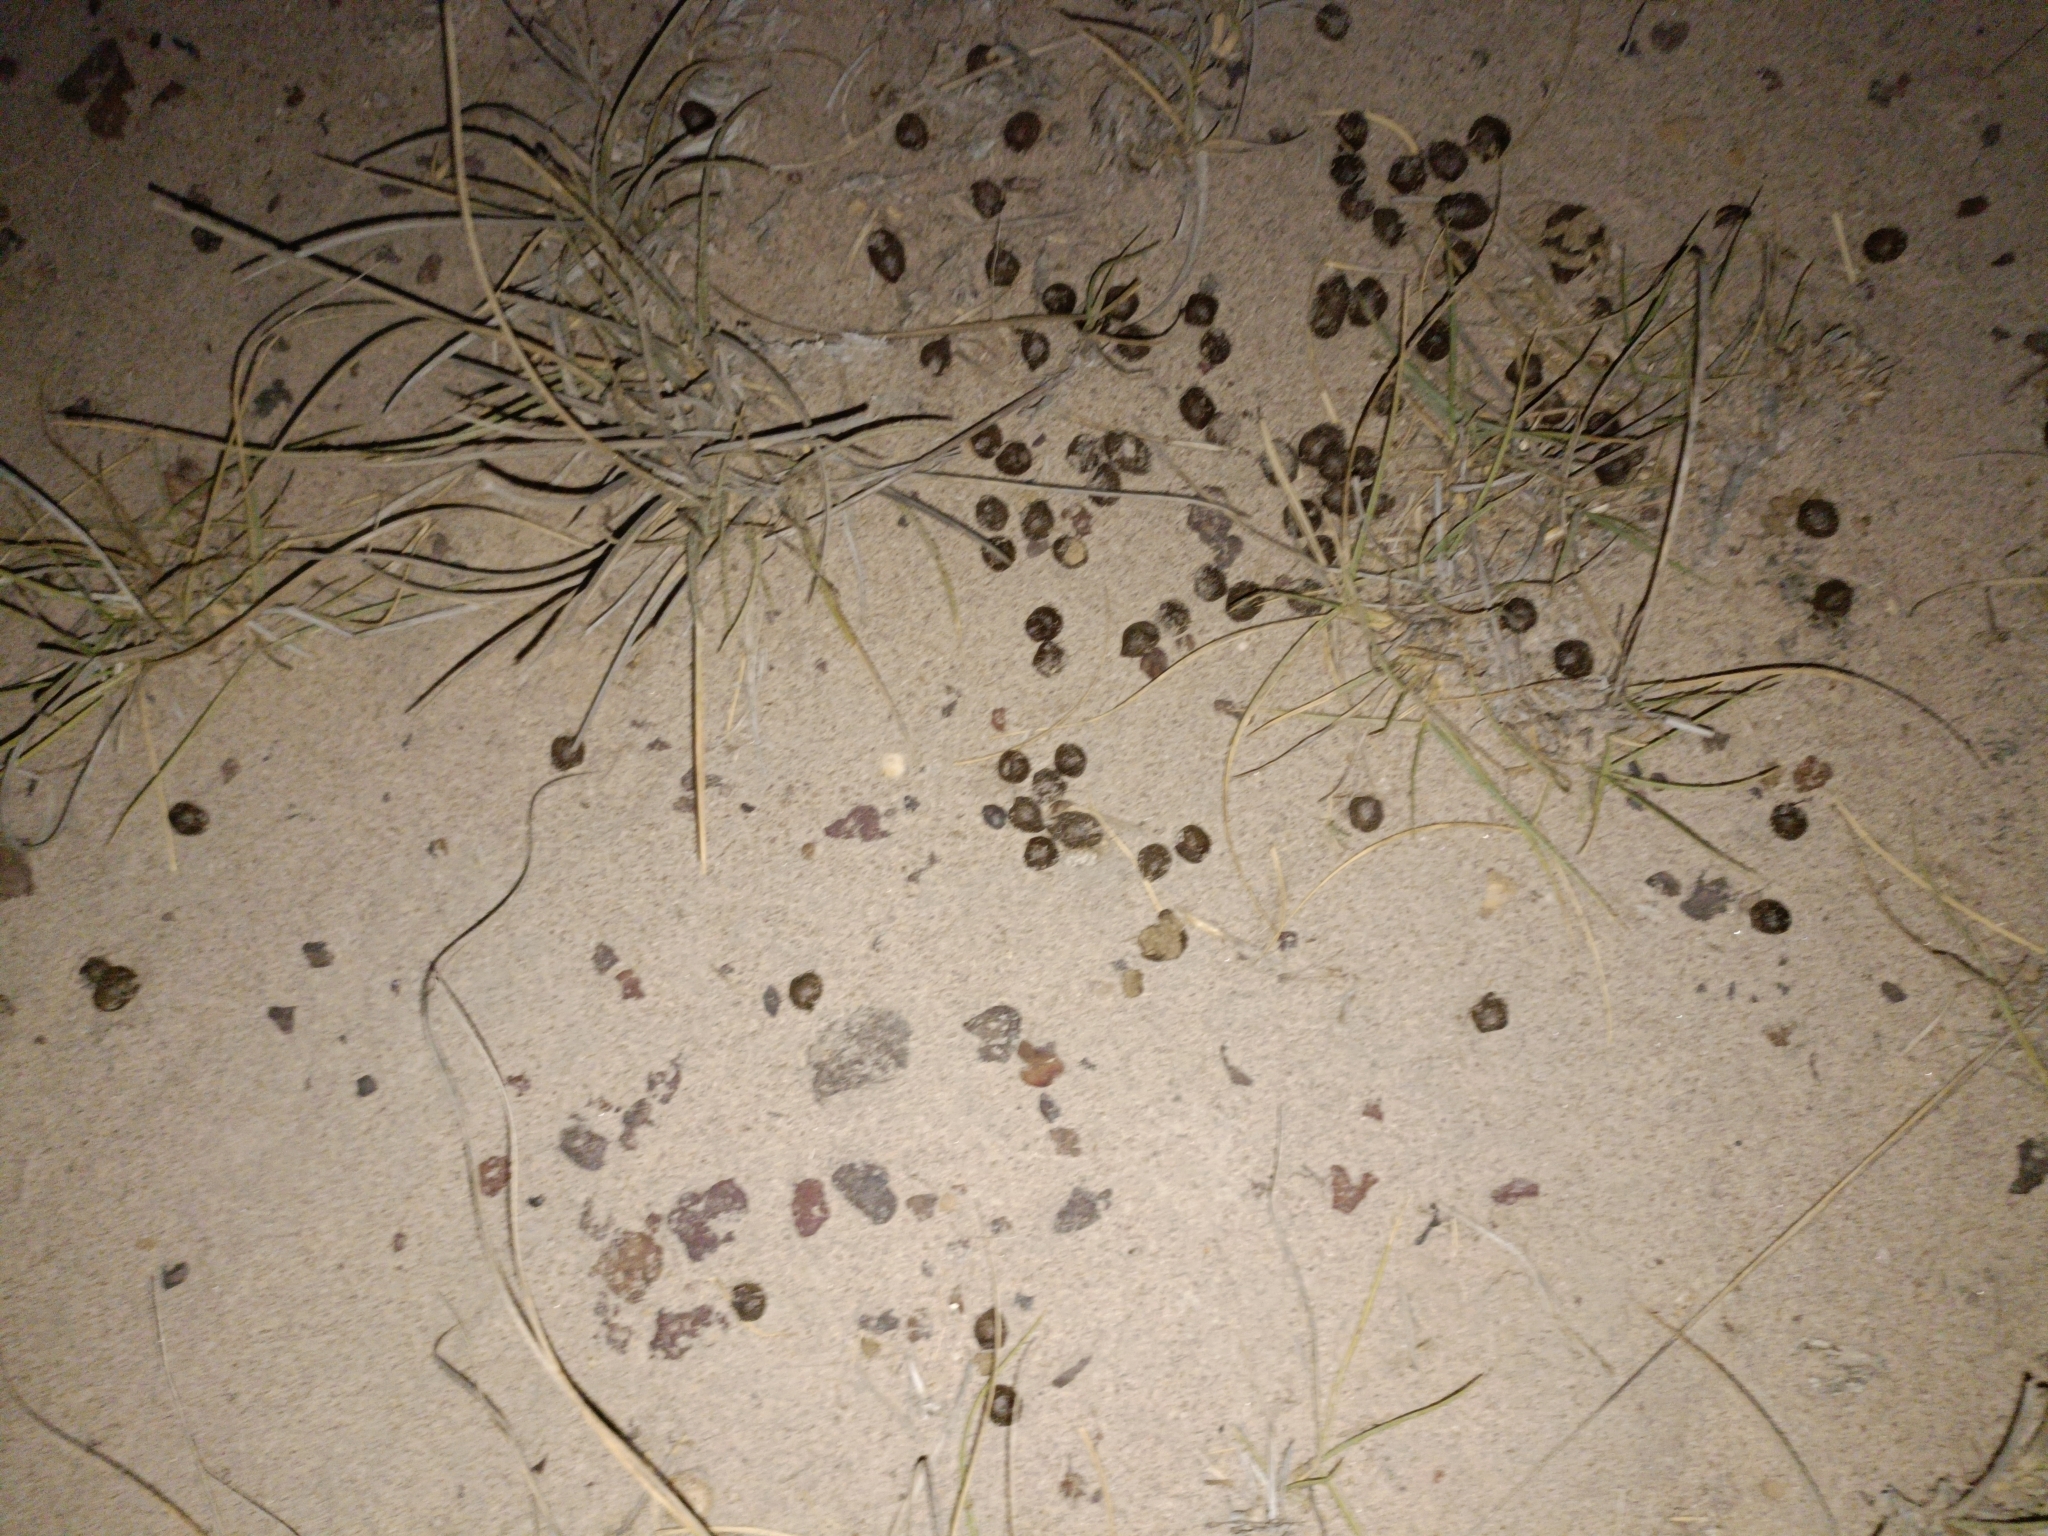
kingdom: Animalia
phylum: Chordata
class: Mammalia
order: Artiodactyla
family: Bovidae
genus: Gazella
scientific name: Gazella bennettii
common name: Indian gazelle
